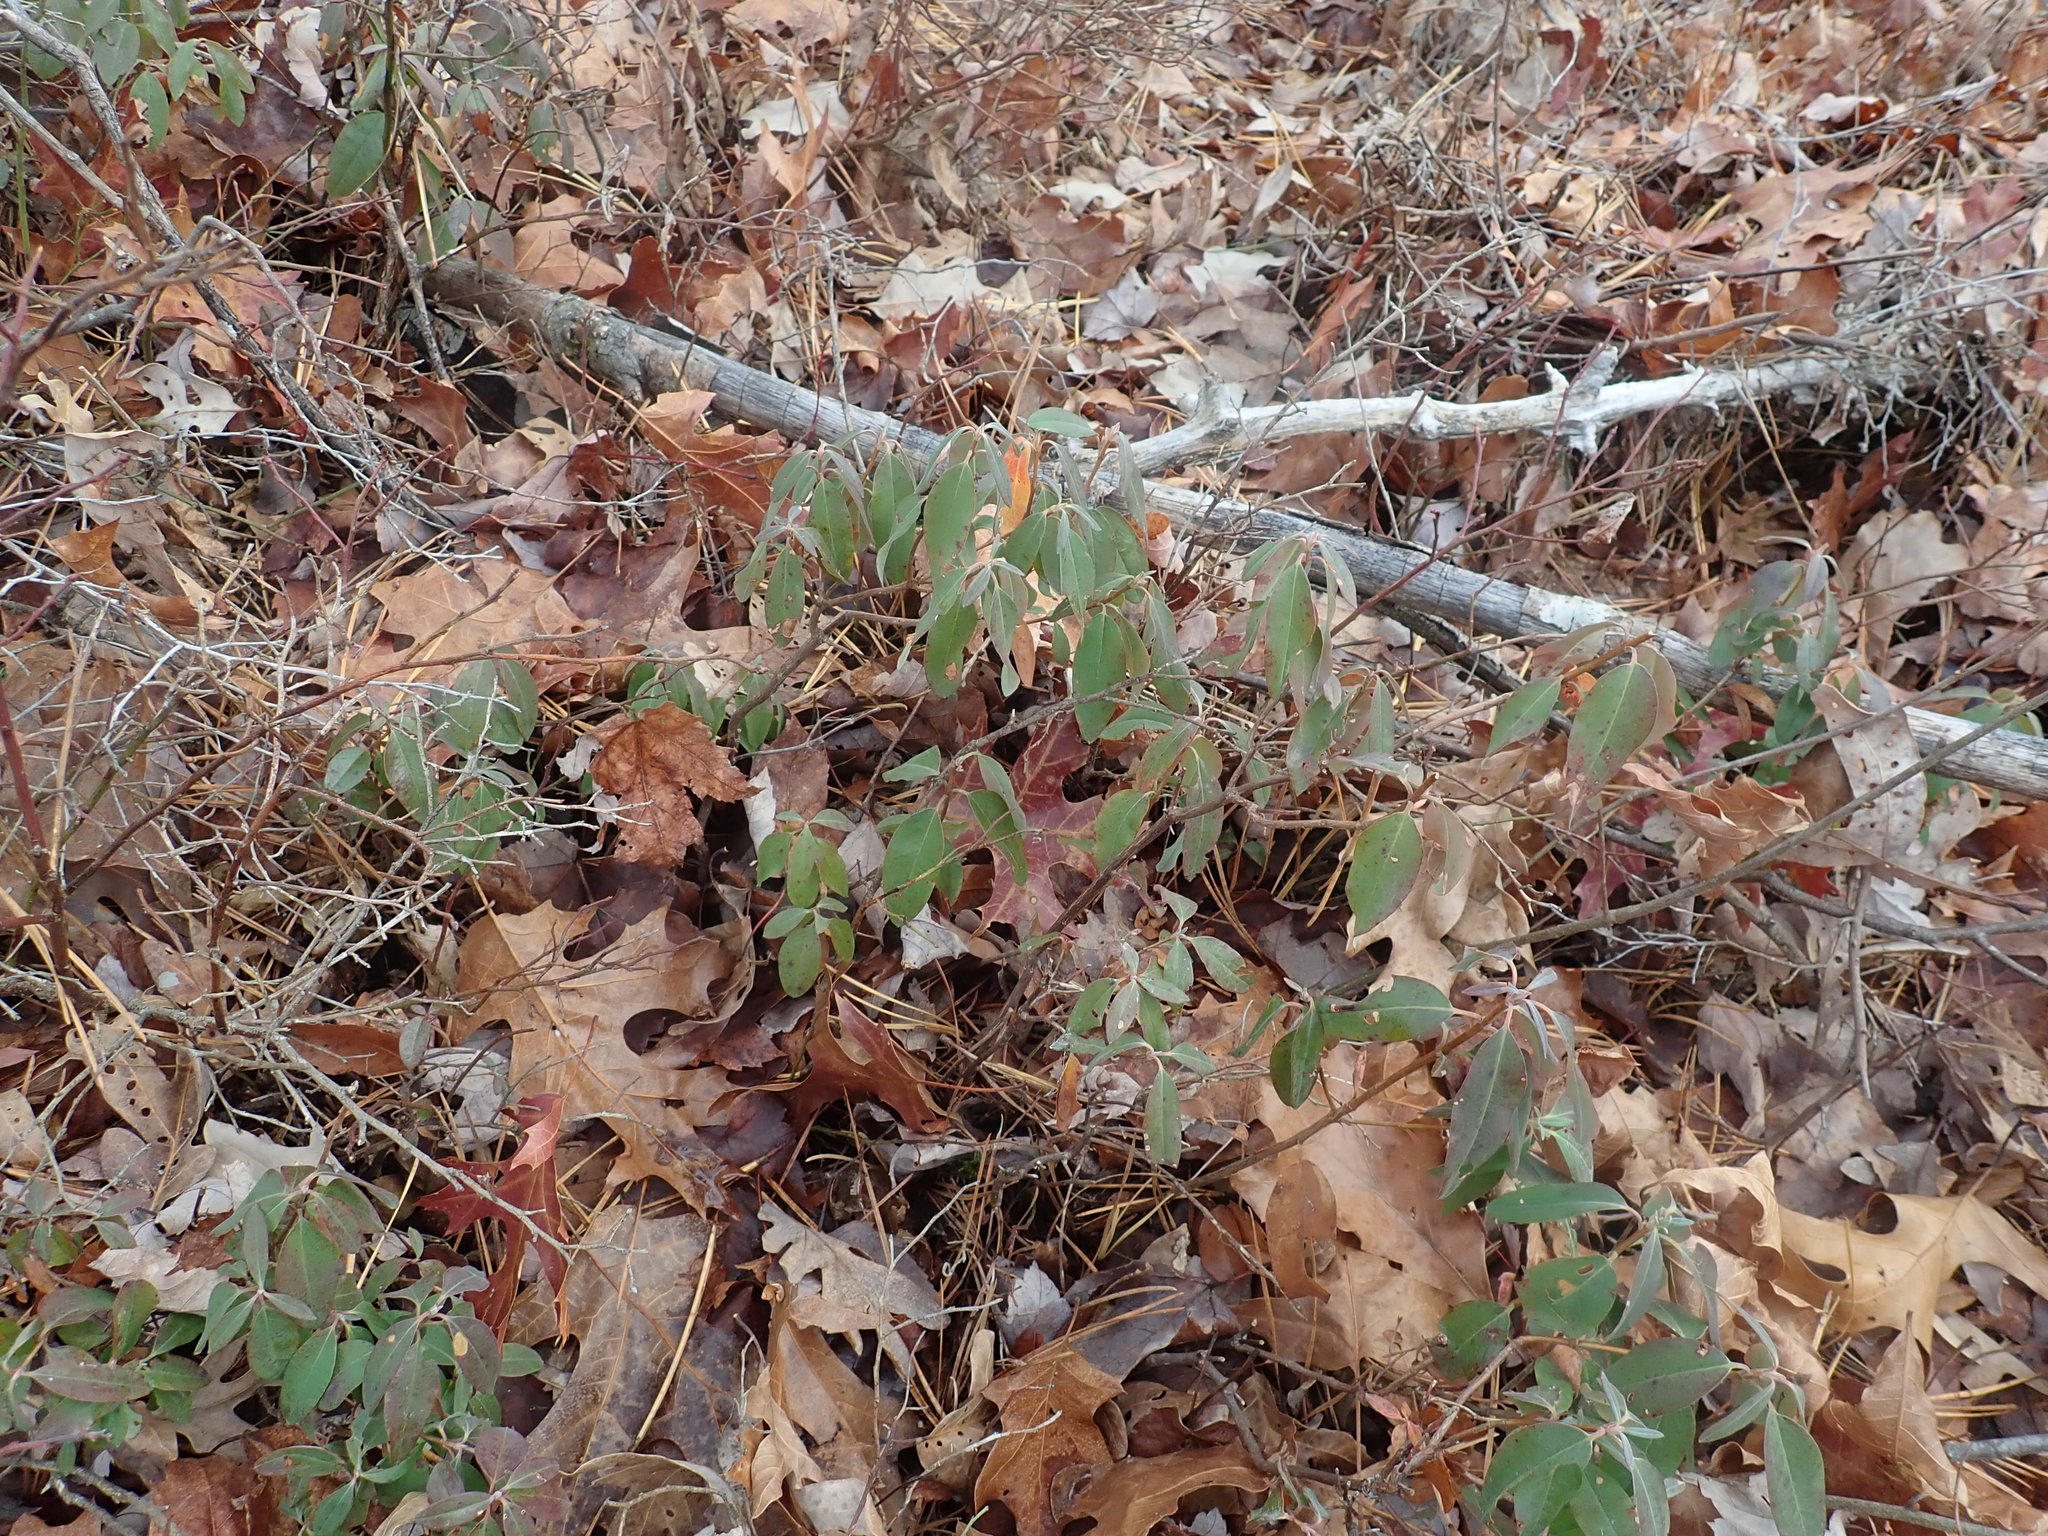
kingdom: Plantae
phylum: Tracheophyta
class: Magnoliopsida
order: Ericales
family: Ericaceae
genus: Kalmia
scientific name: Kalmia angustifolia
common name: Sheep-laurel
